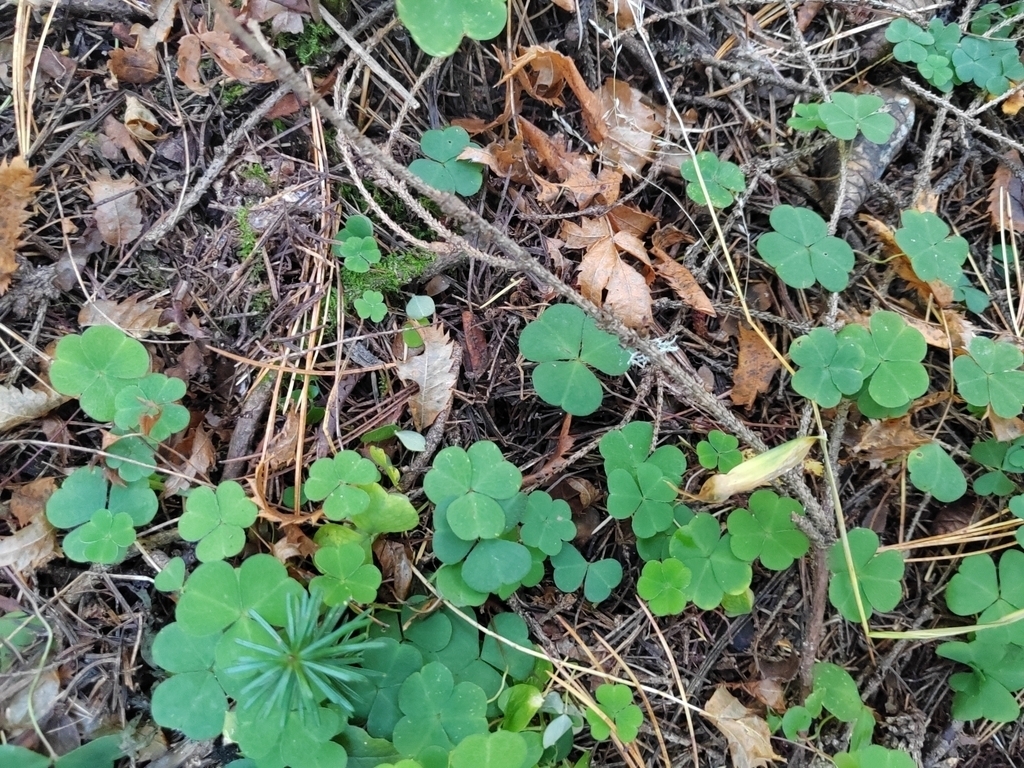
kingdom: Plantae
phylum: Tracheophyta
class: Magnoliopsida
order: Oxalidales
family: Oxalidaceae
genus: Oxalis
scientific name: Oxalis acetosella
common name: Wood-sorrel
